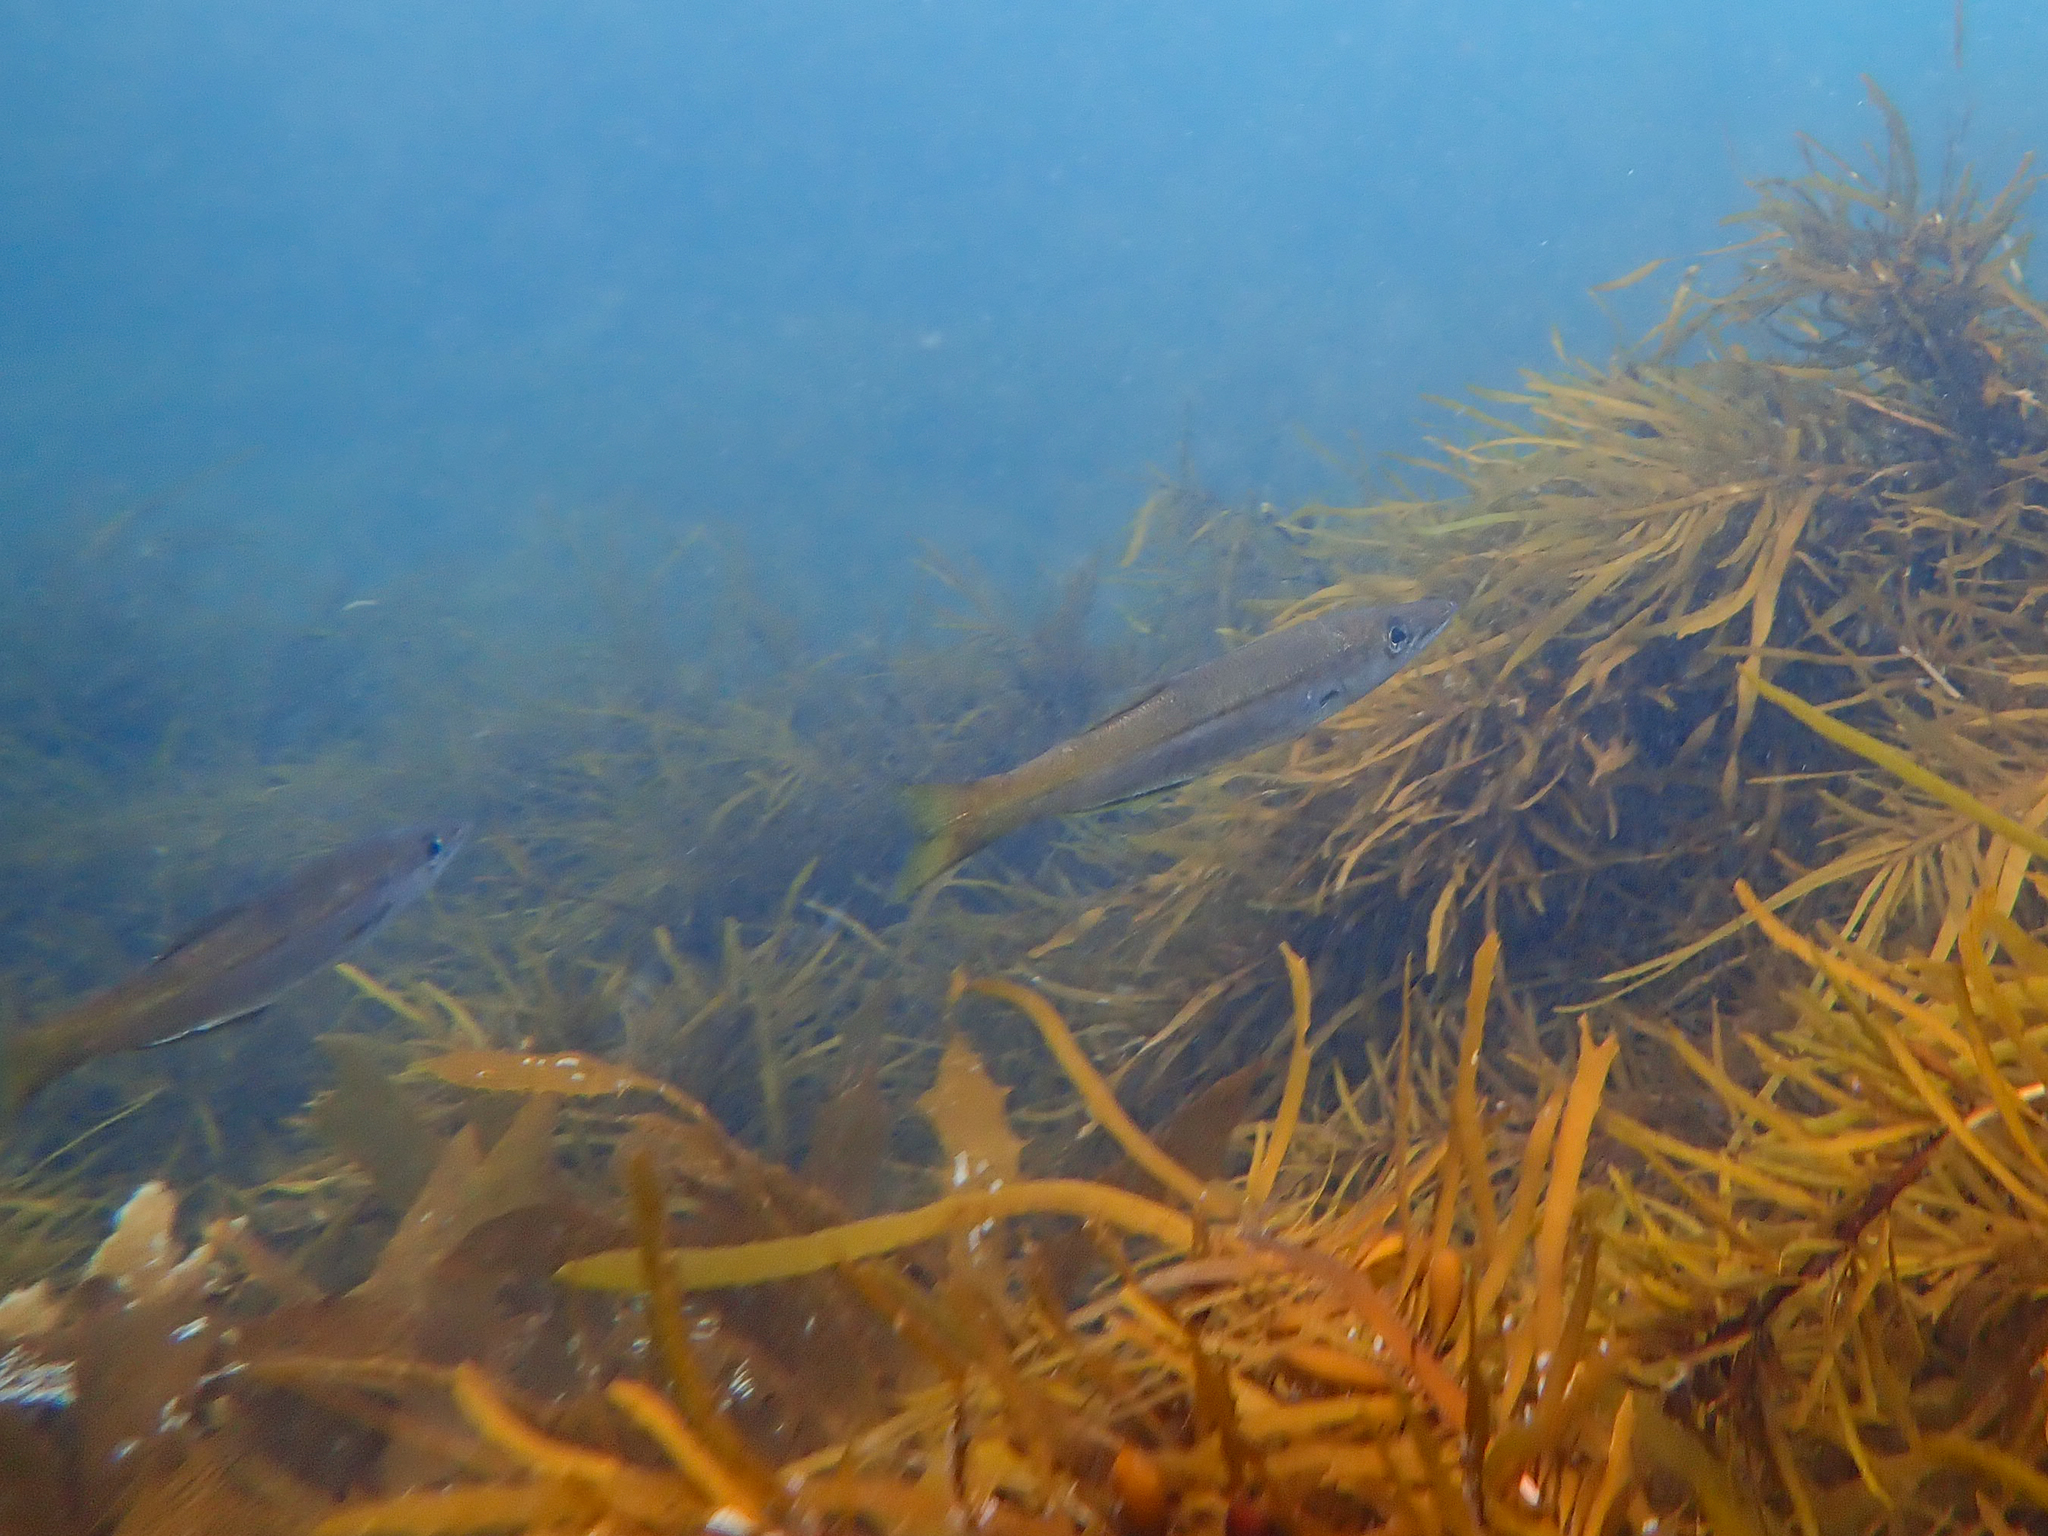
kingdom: Animalia
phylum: Chordata
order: Perciformes
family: Dinolestidae
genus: Dinolestes
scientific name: Dinolestes lewini
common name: Jack pike
